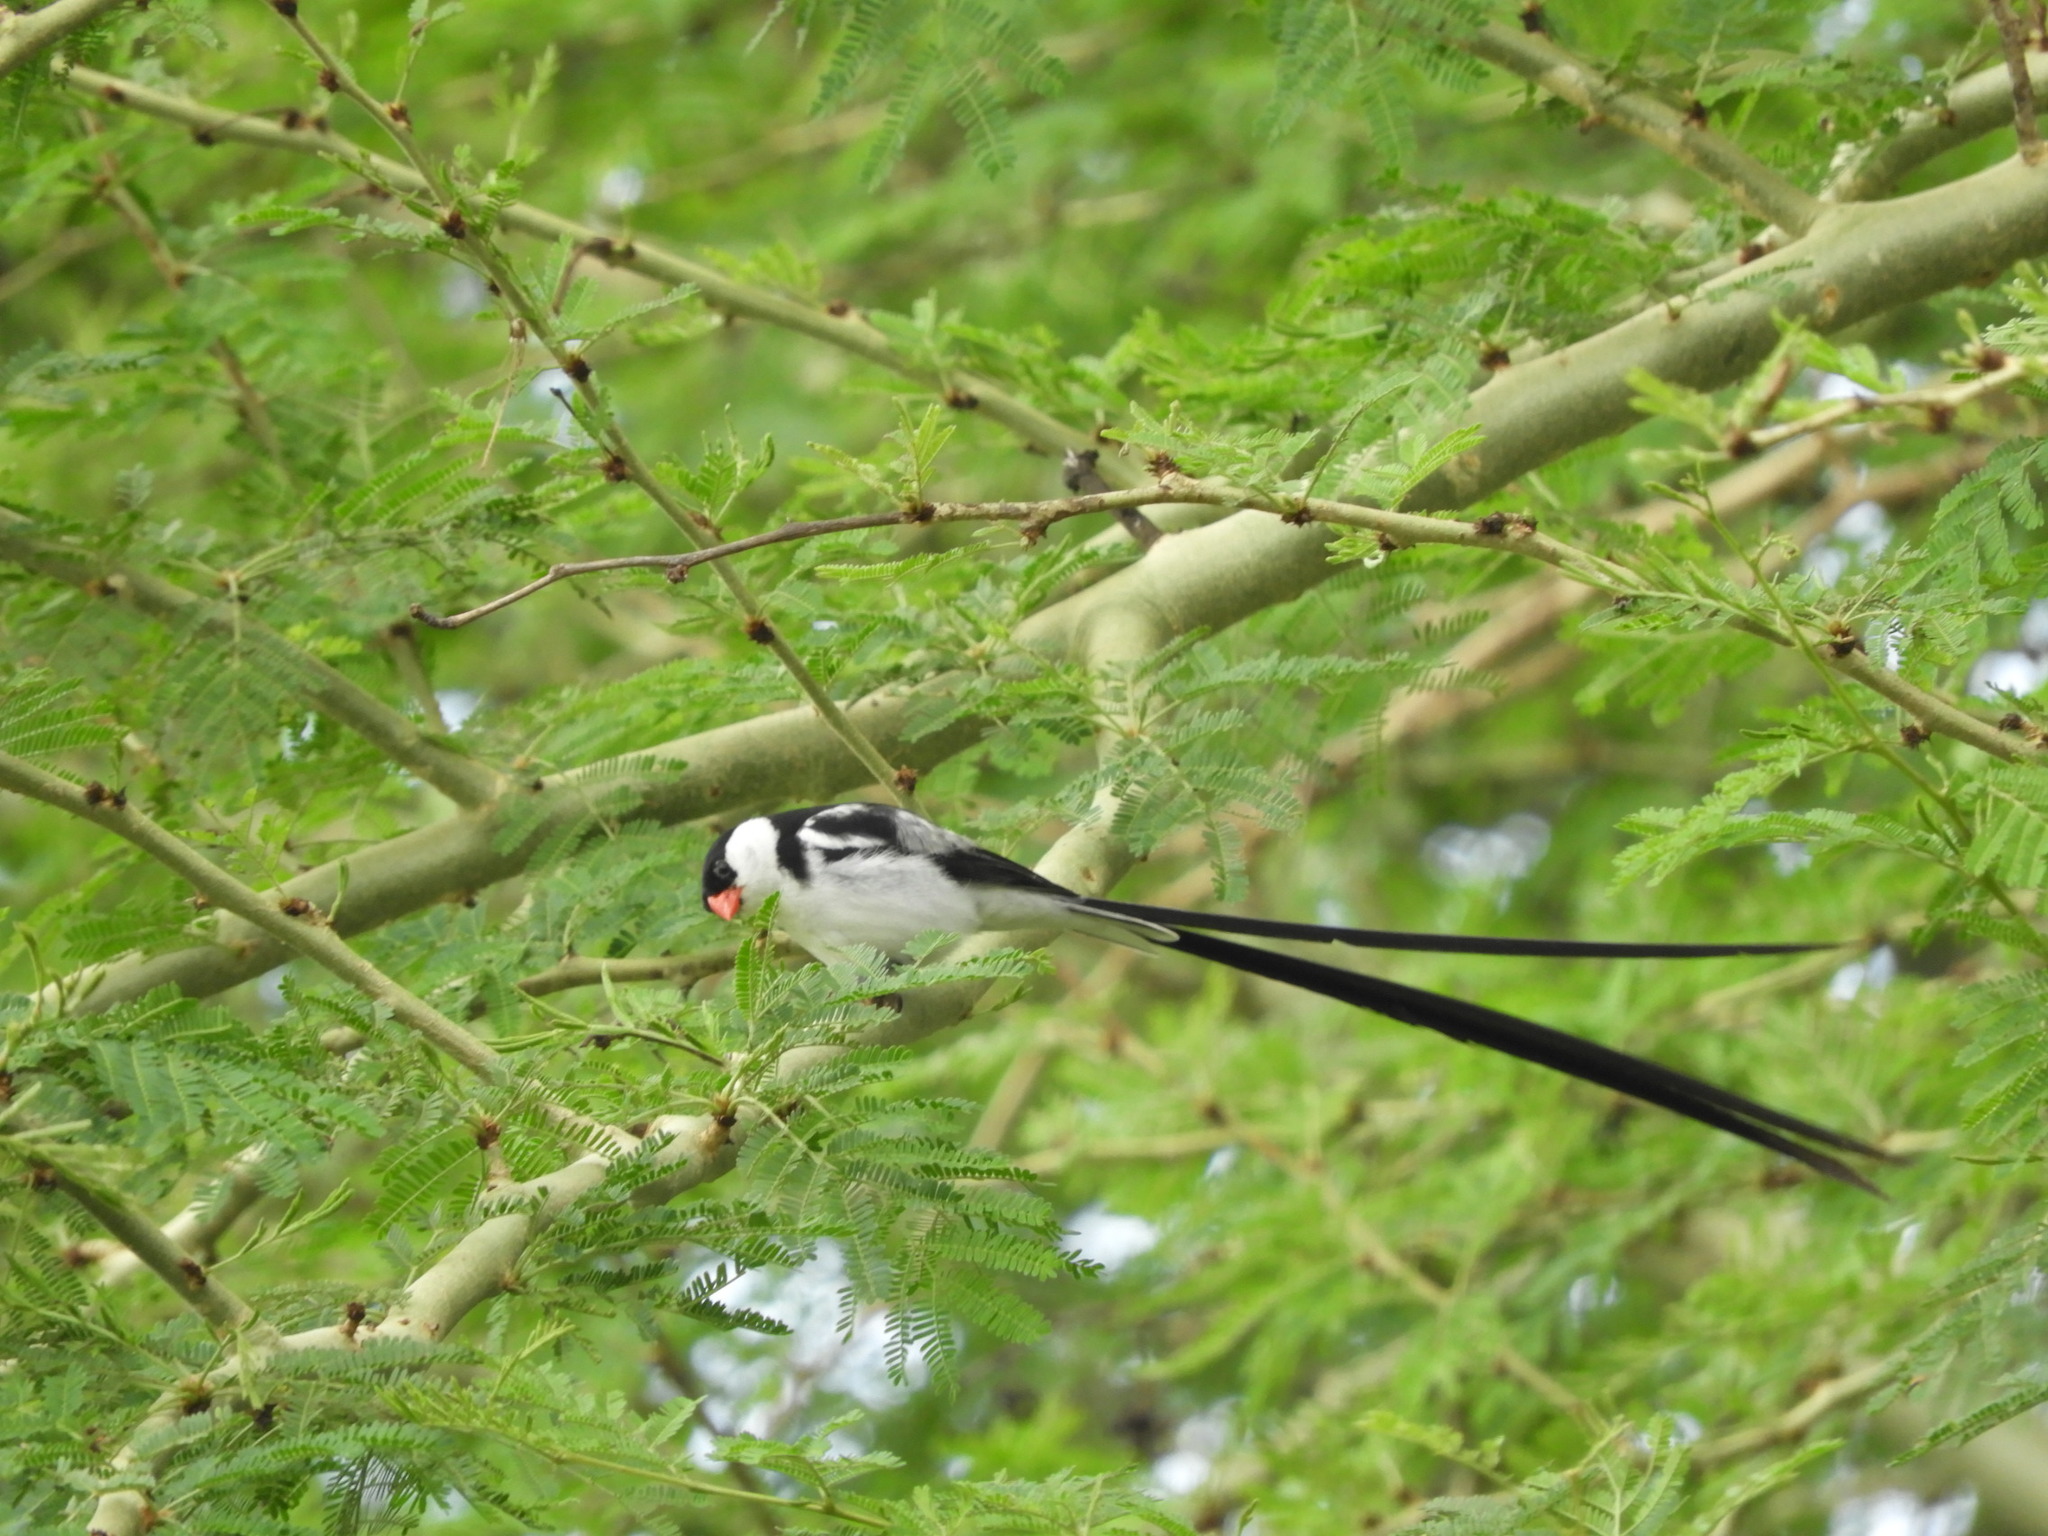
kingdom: Animalia
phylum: Chordata
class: Aves
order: Passeriformes
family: Viduidae
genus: Vidua
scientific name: Vidua macroura
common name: Pin-tailed whydah
